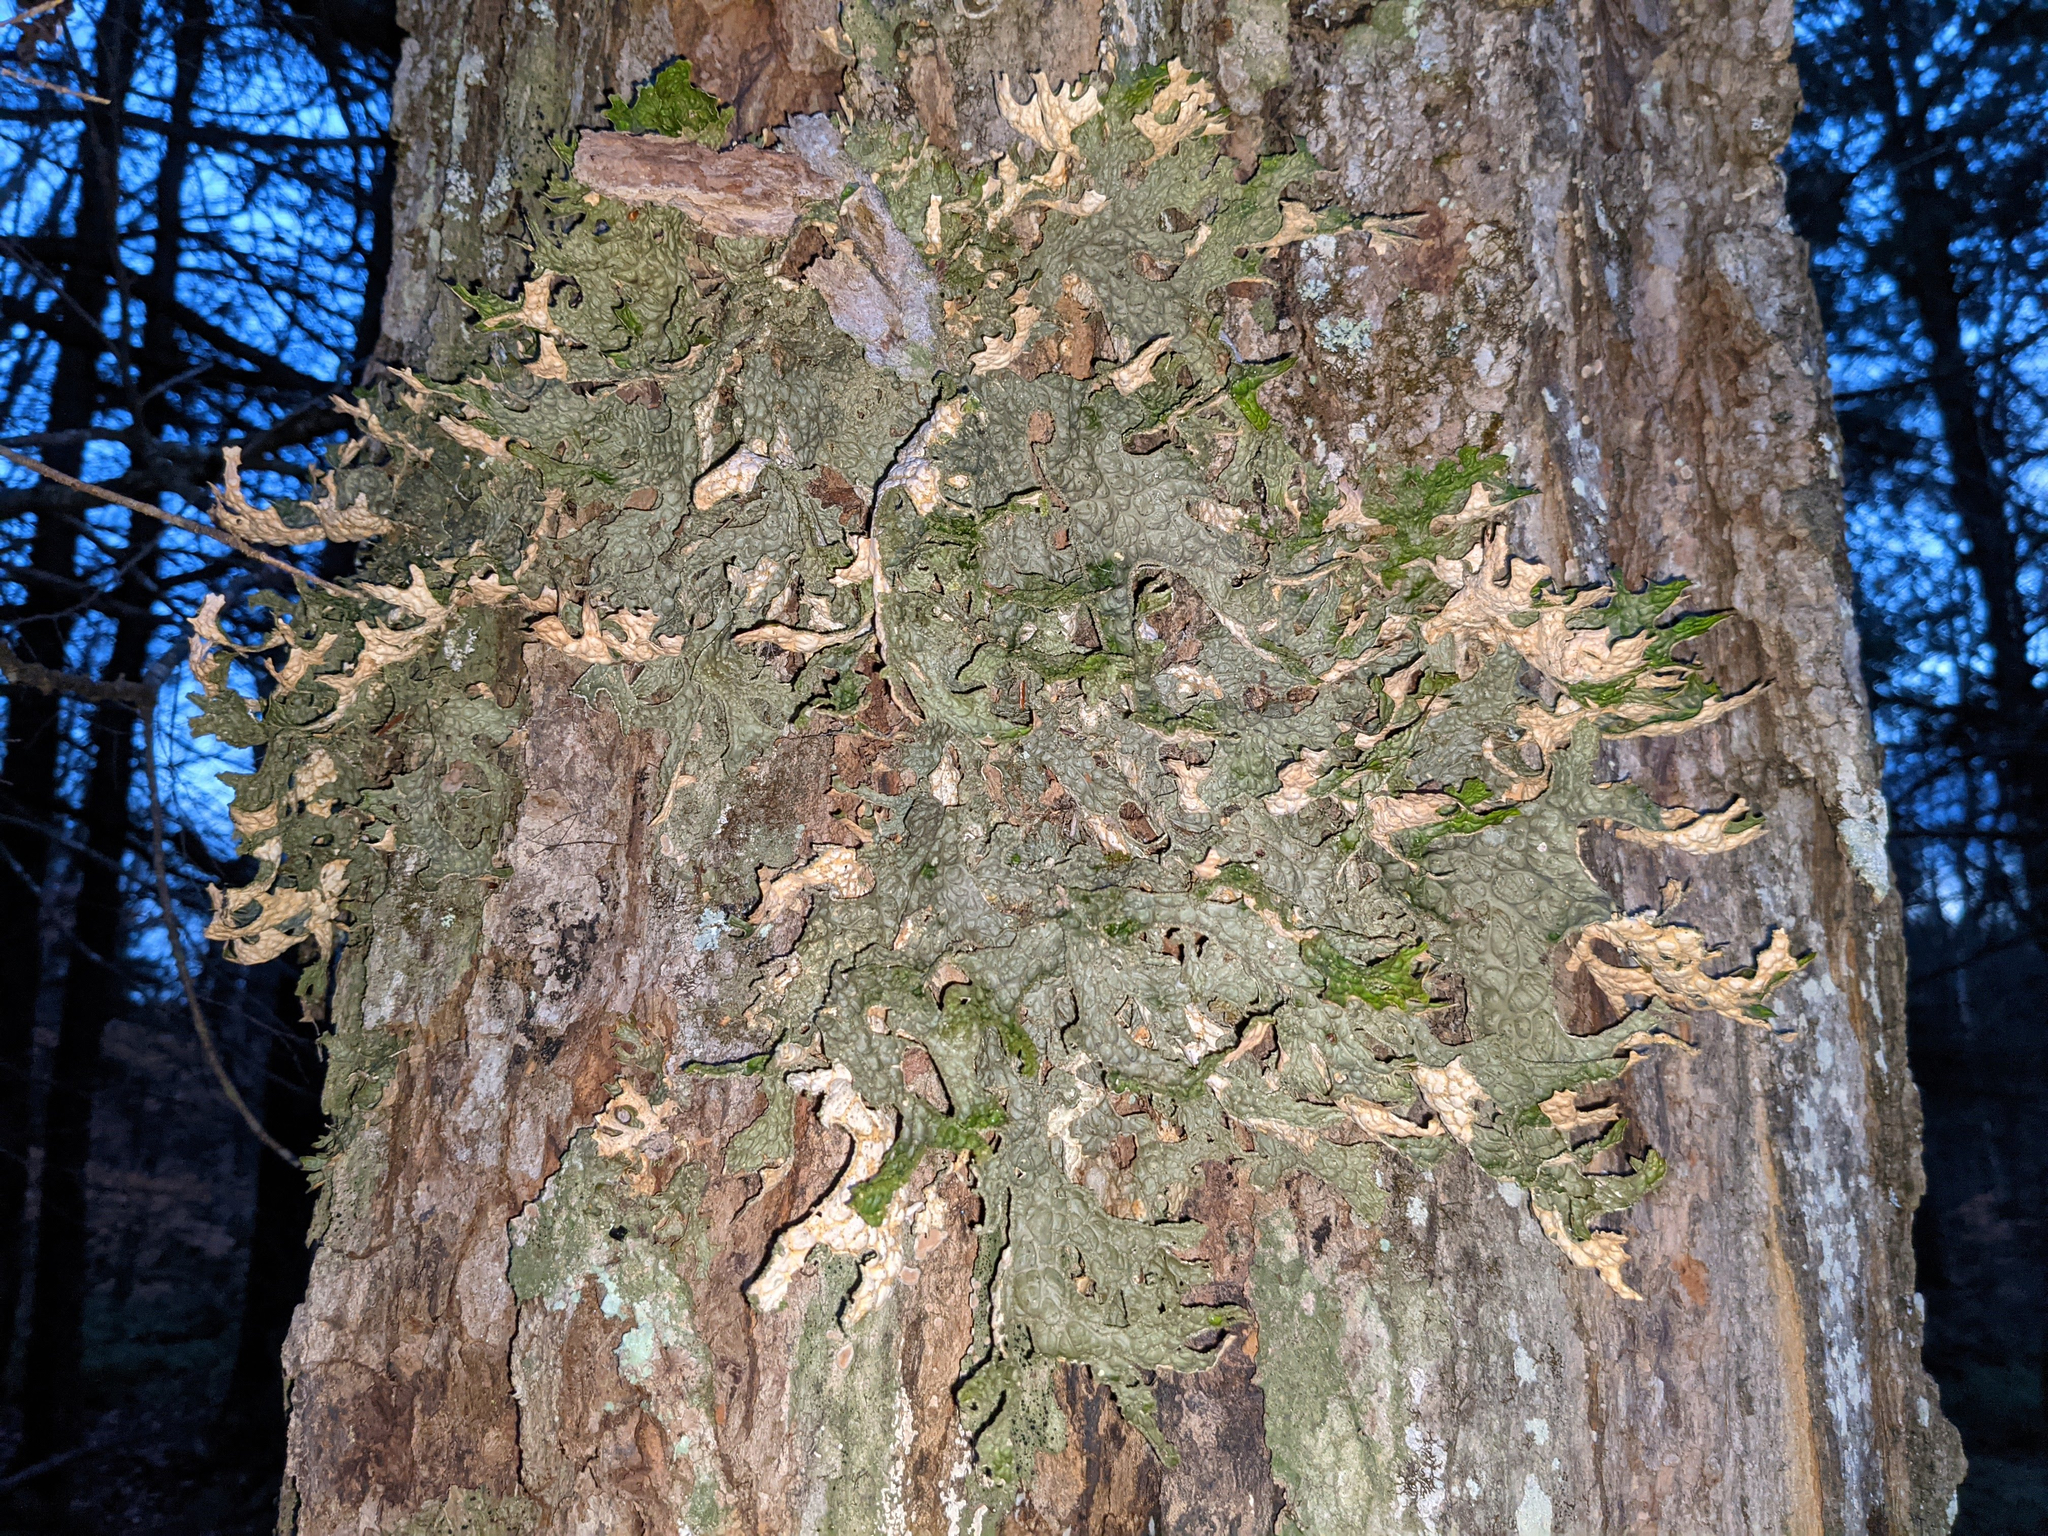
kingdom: Fungi
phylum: Ascomycota
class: Lecanoromycetes
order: Peltigerales
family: Lobariaceae
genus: Lobaria
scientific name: Lobaria pulmonaria
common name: Lungwort
